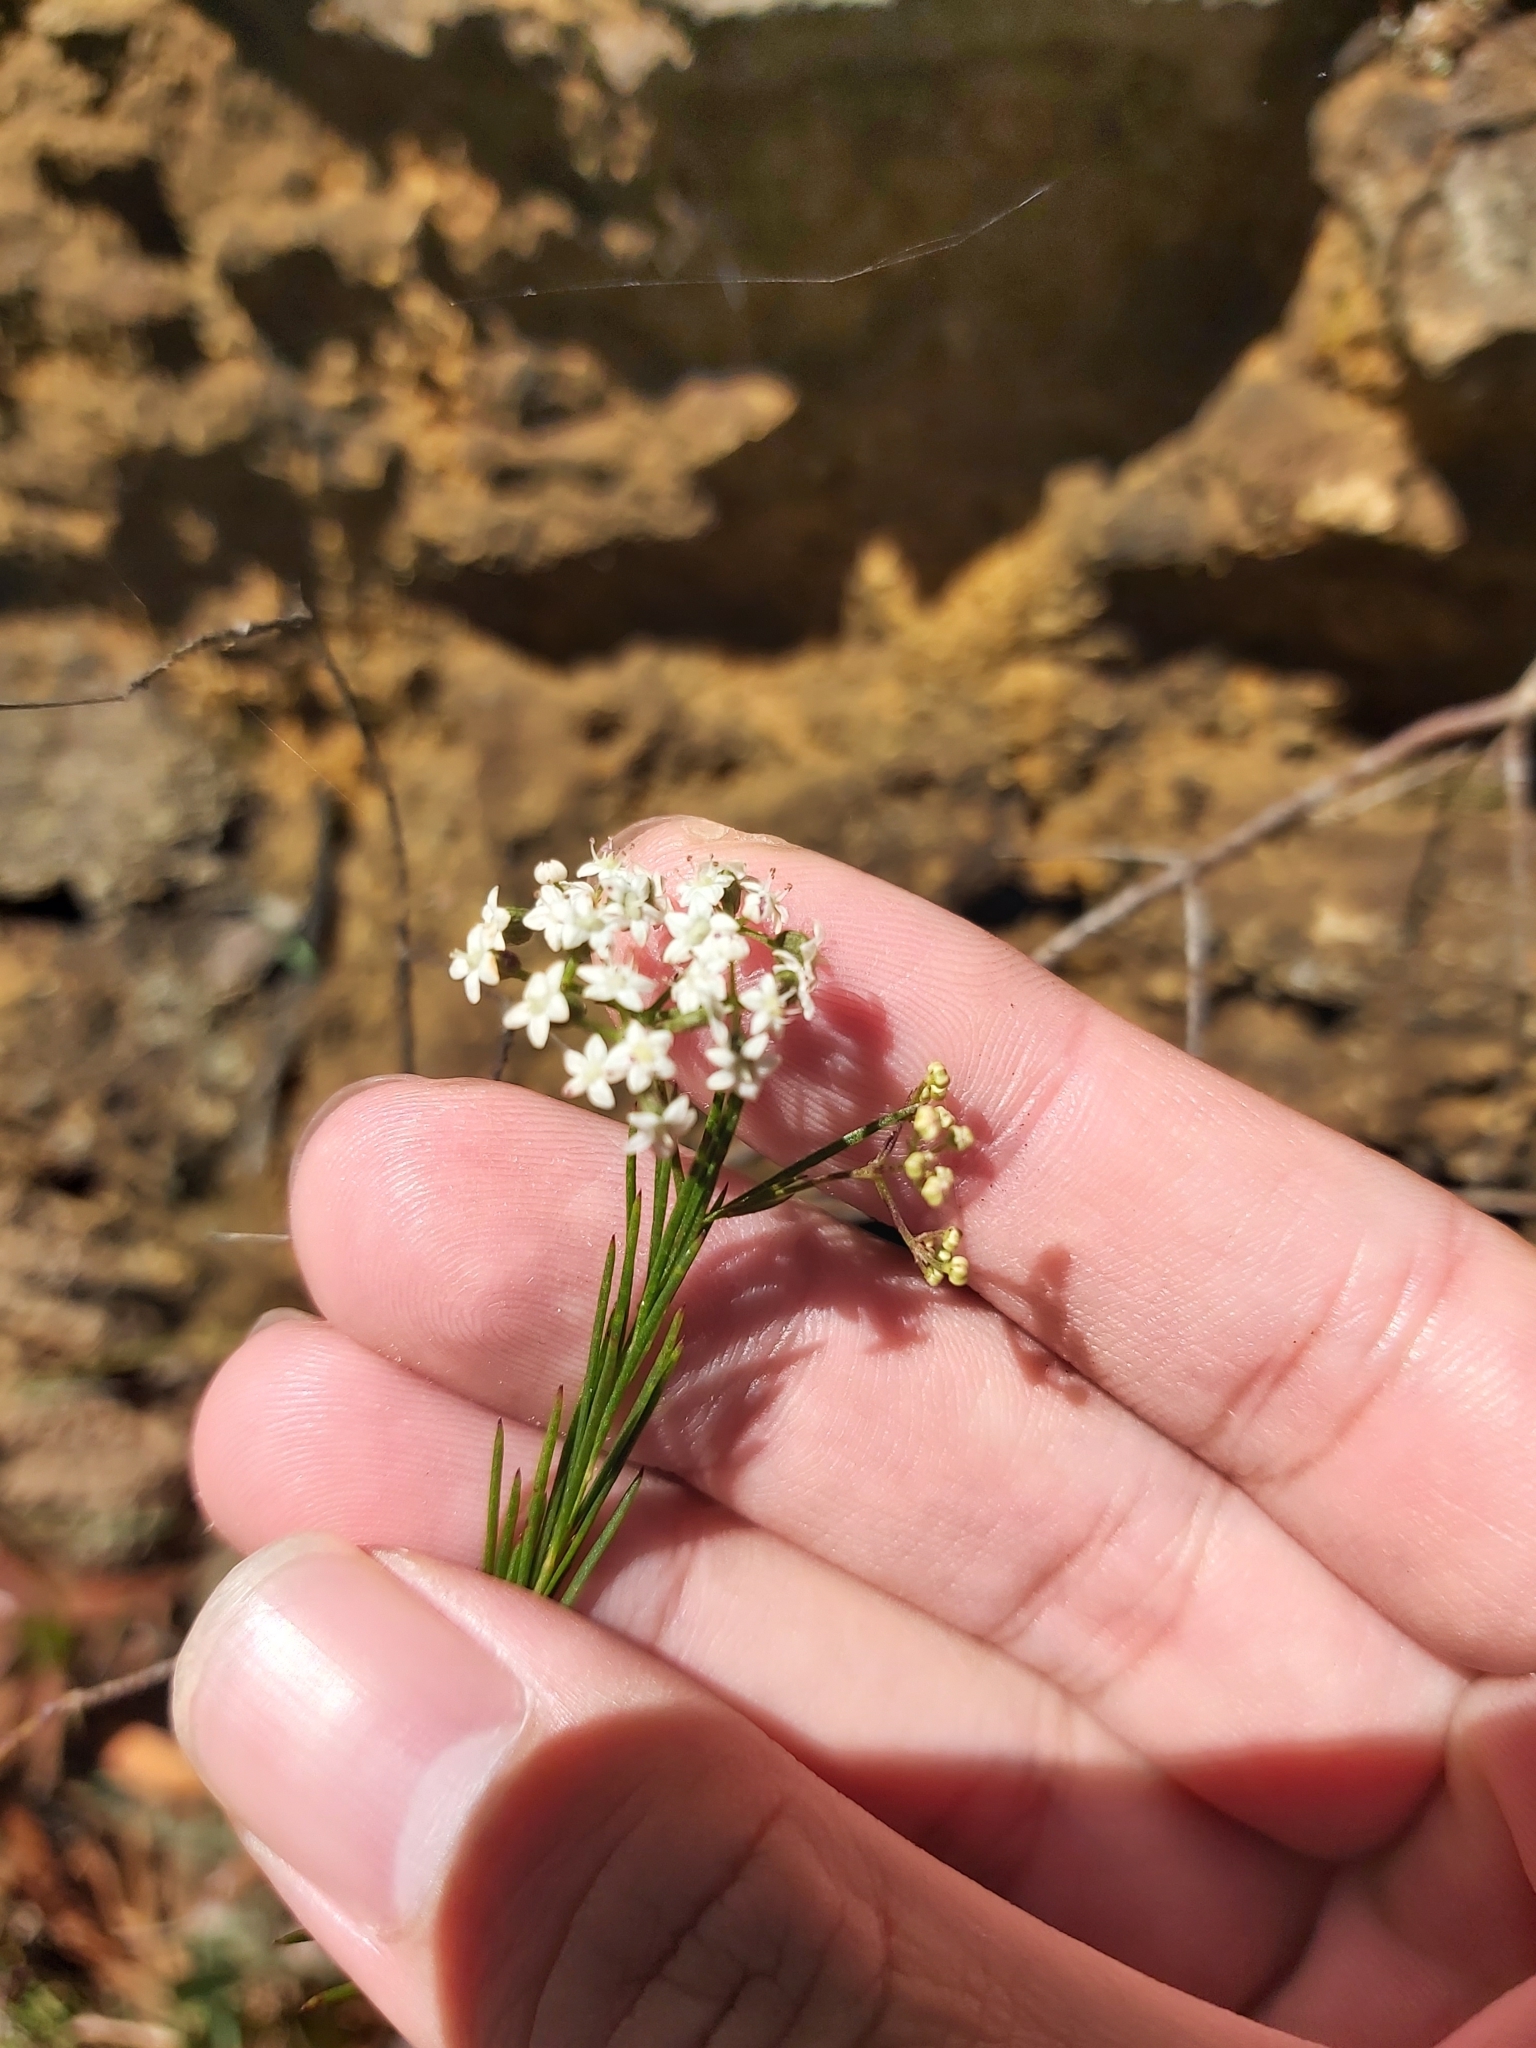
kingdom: Plantae
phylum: Tracheophyta
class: Magnoliopsida
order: Apiales
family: Apiaceae
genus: Platysace
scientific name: Platysace linearifolia
